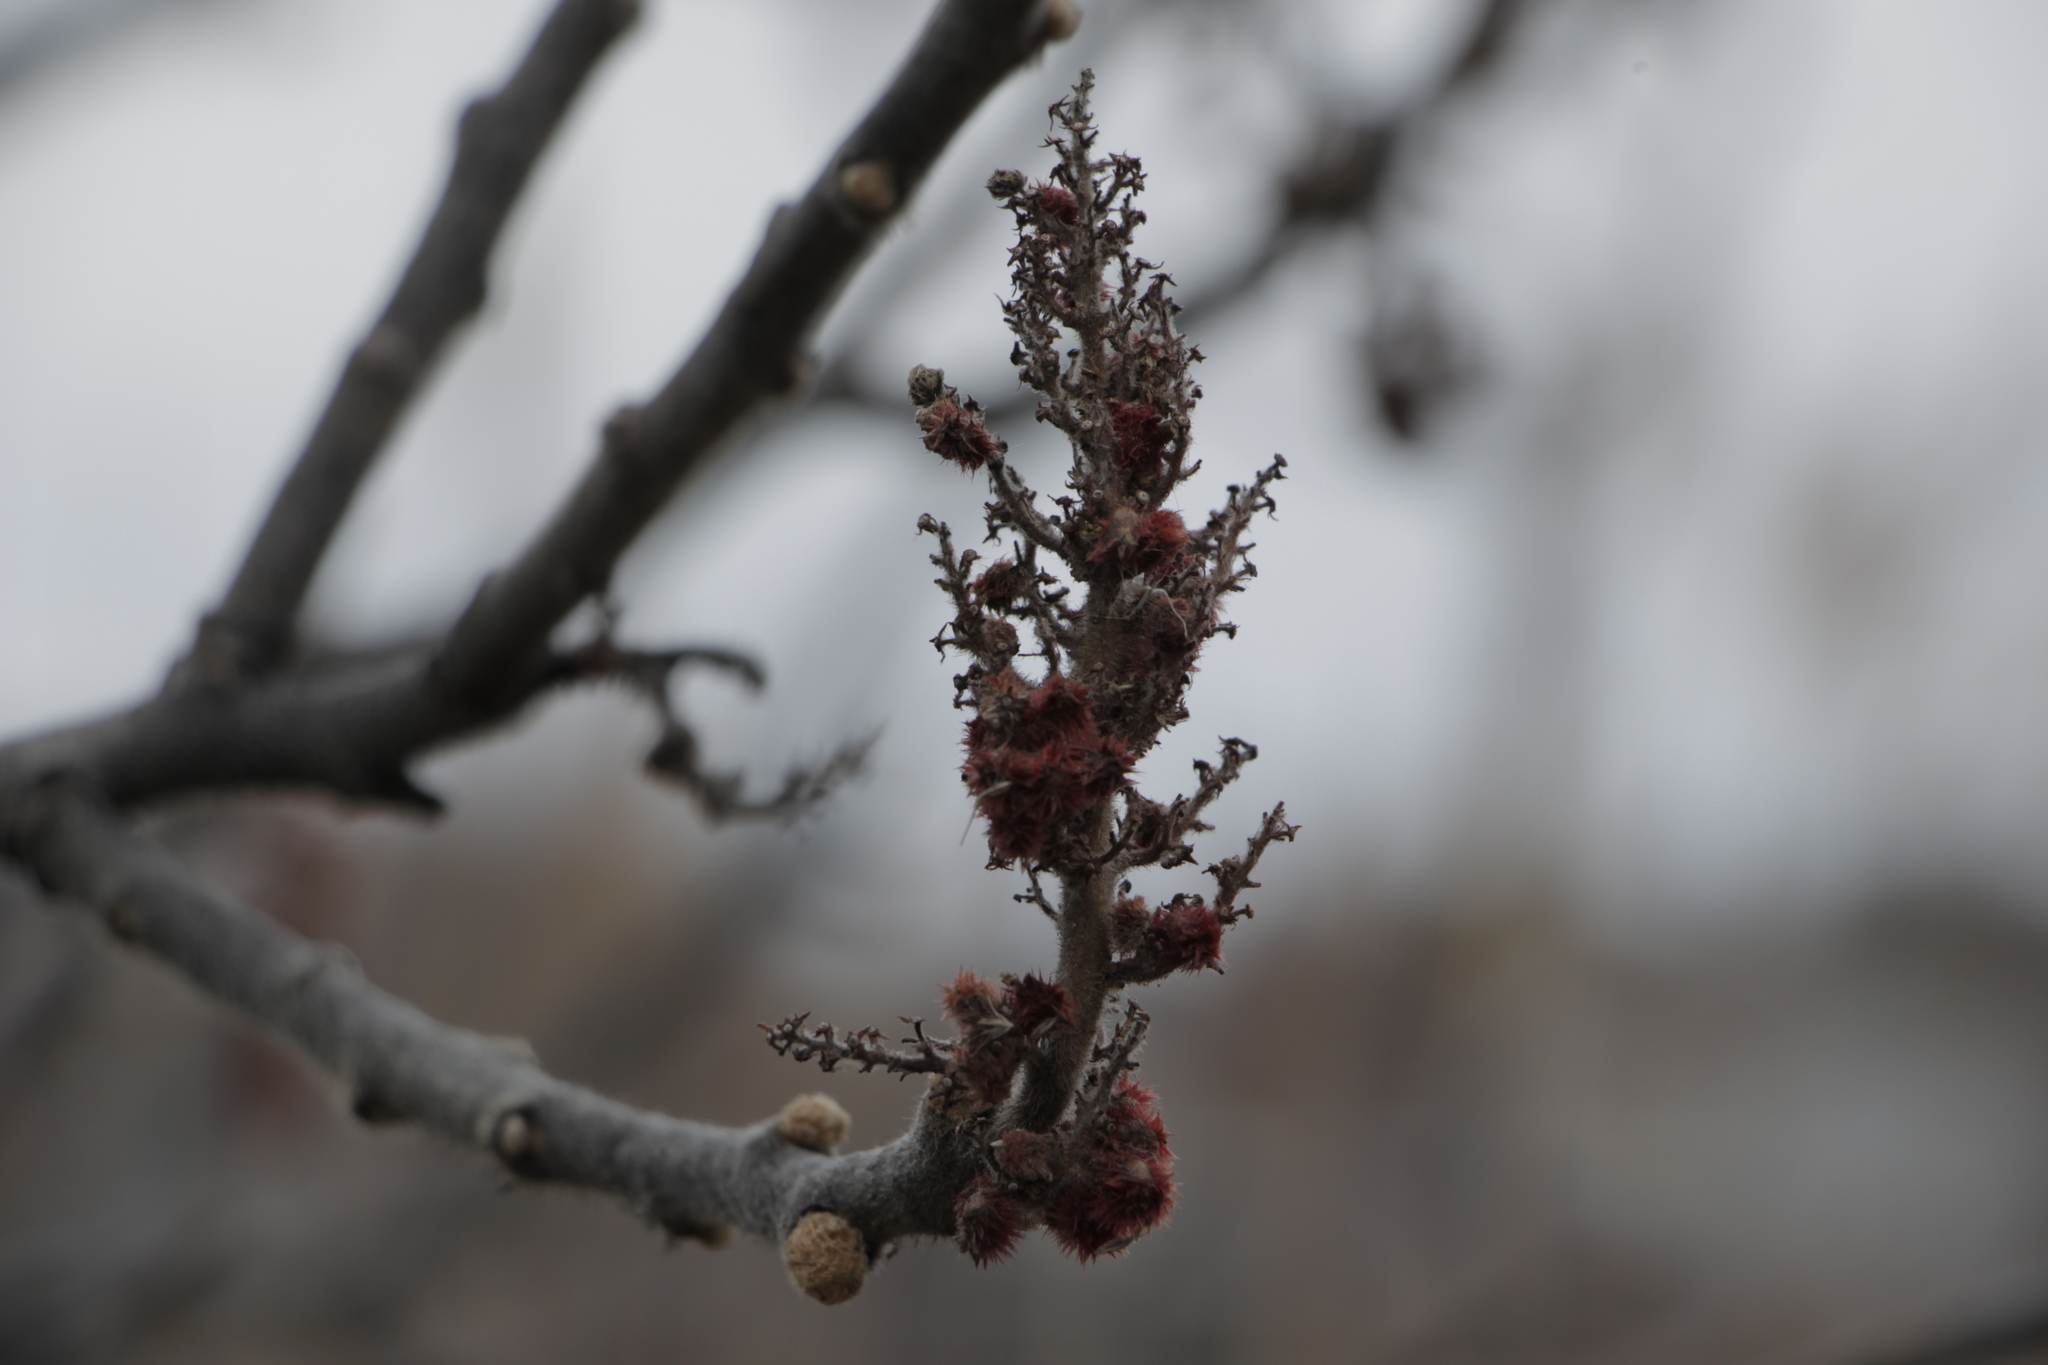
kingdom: Plantae
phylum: Tracheophyta
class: Magnoliopsida
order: Sapindales
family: Anacardiaceae
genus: Rhus
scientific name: Rhus typhina
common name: Staghorn sumac
